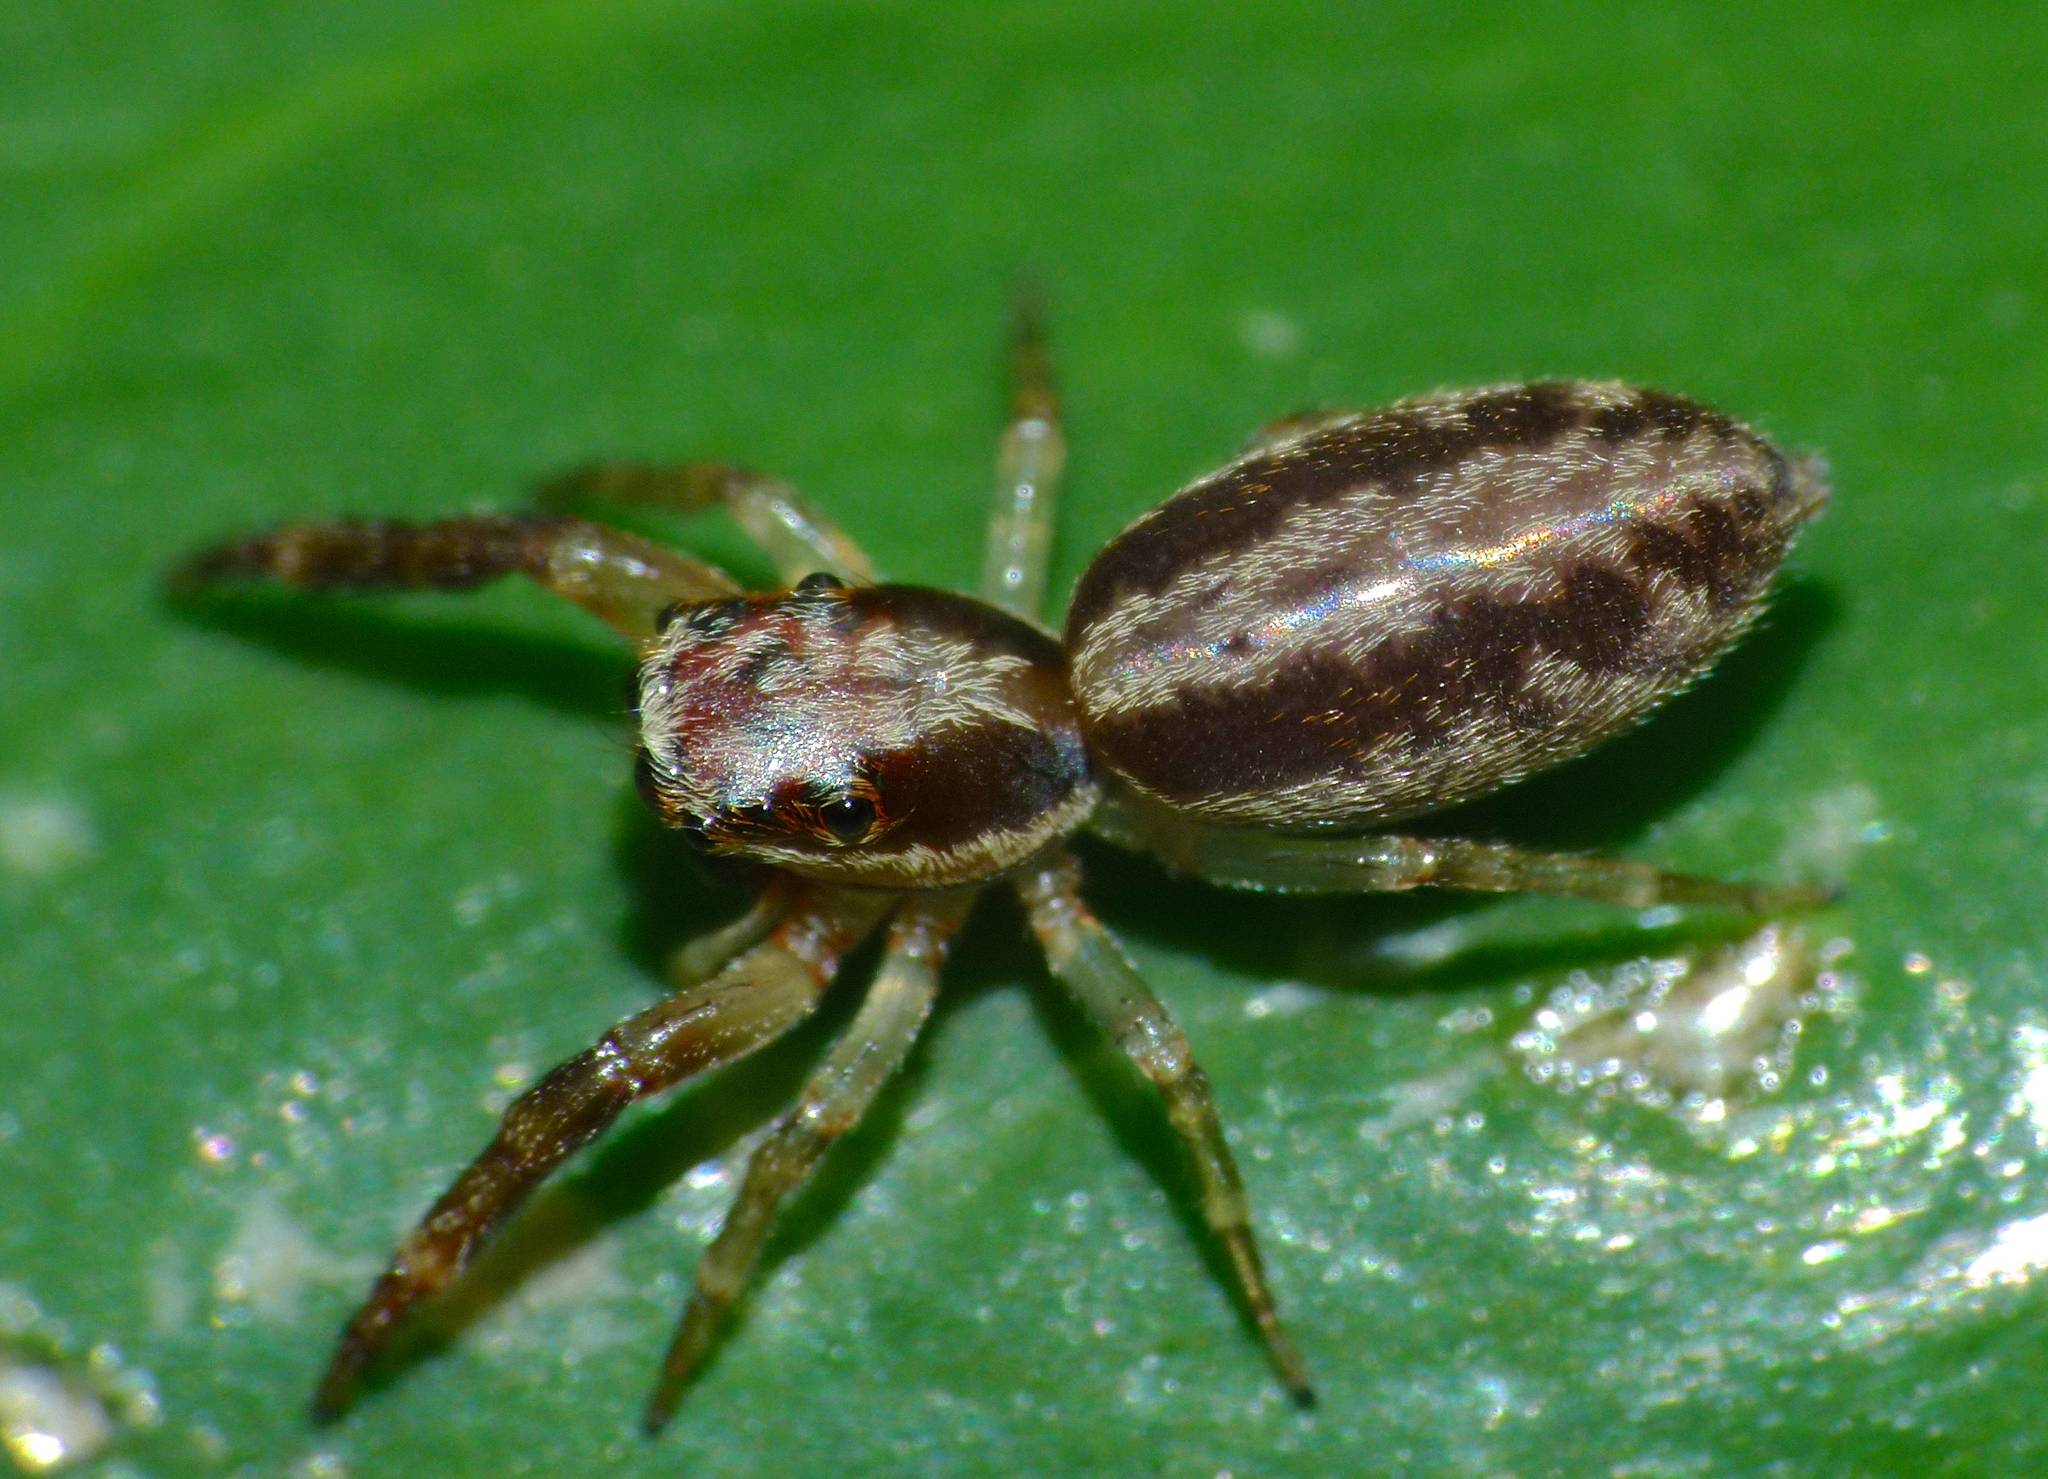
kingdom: Animalia
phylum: Arthropoda
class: Arachnida
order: Araneae
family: Salticidae
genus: Trite
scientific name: Trite mustilina
